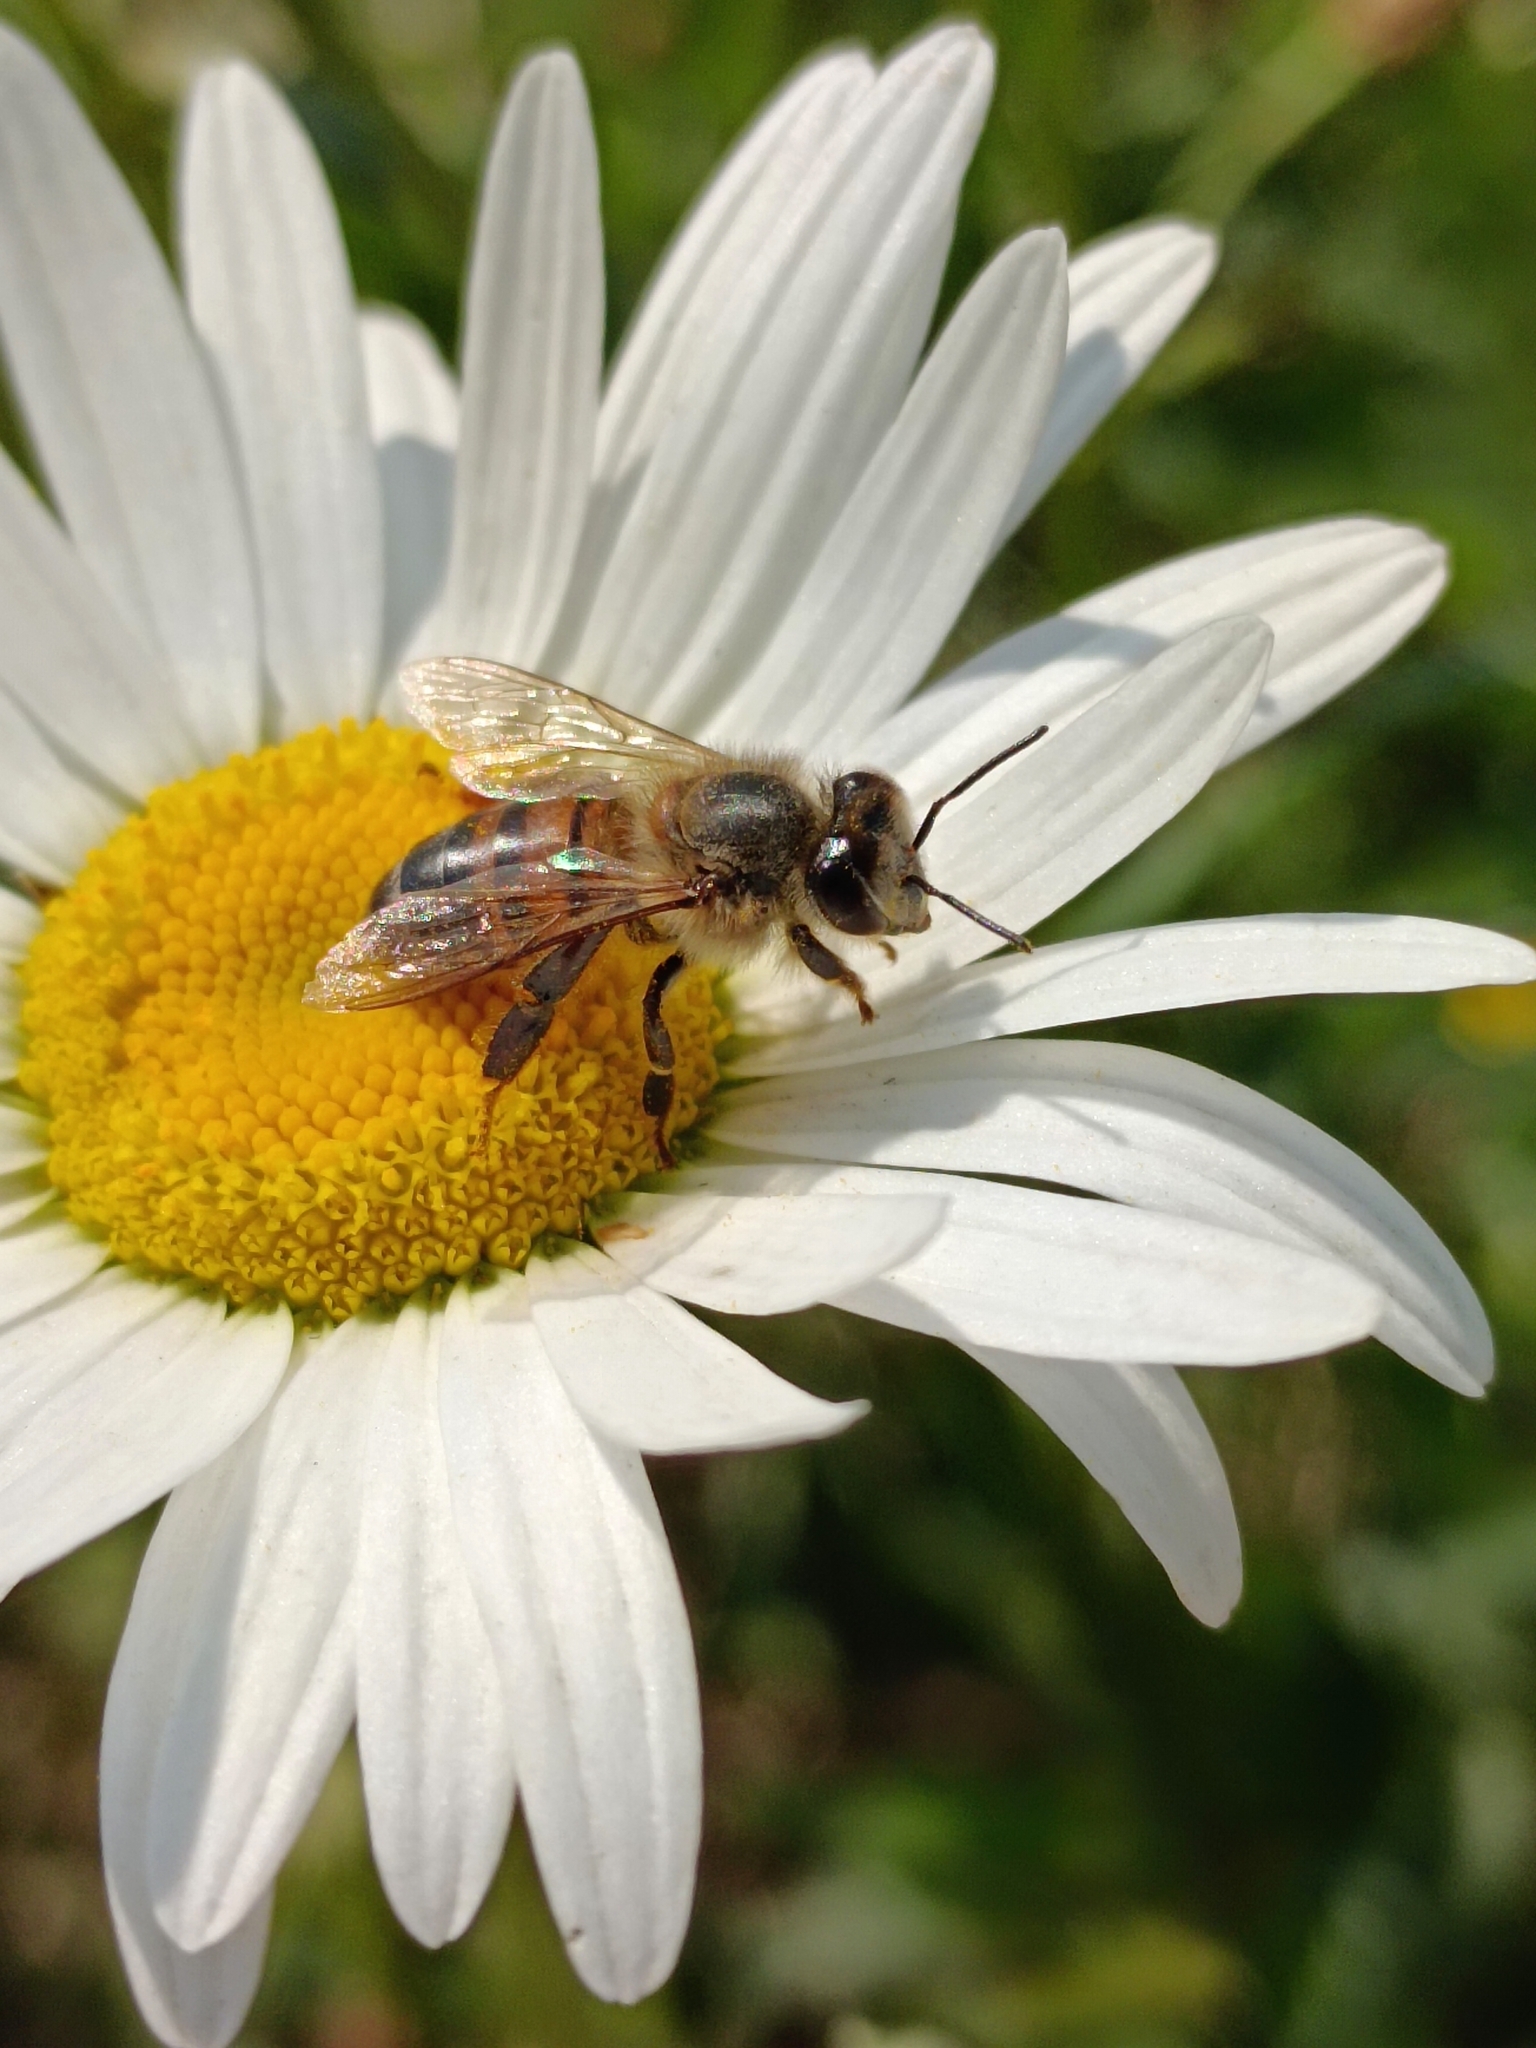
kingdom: Animalia
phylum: Arthropoda
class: Insecta
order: Hymenoptera
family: Apidae
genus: Apis
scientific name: Apis mellifera
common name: Honey bee
